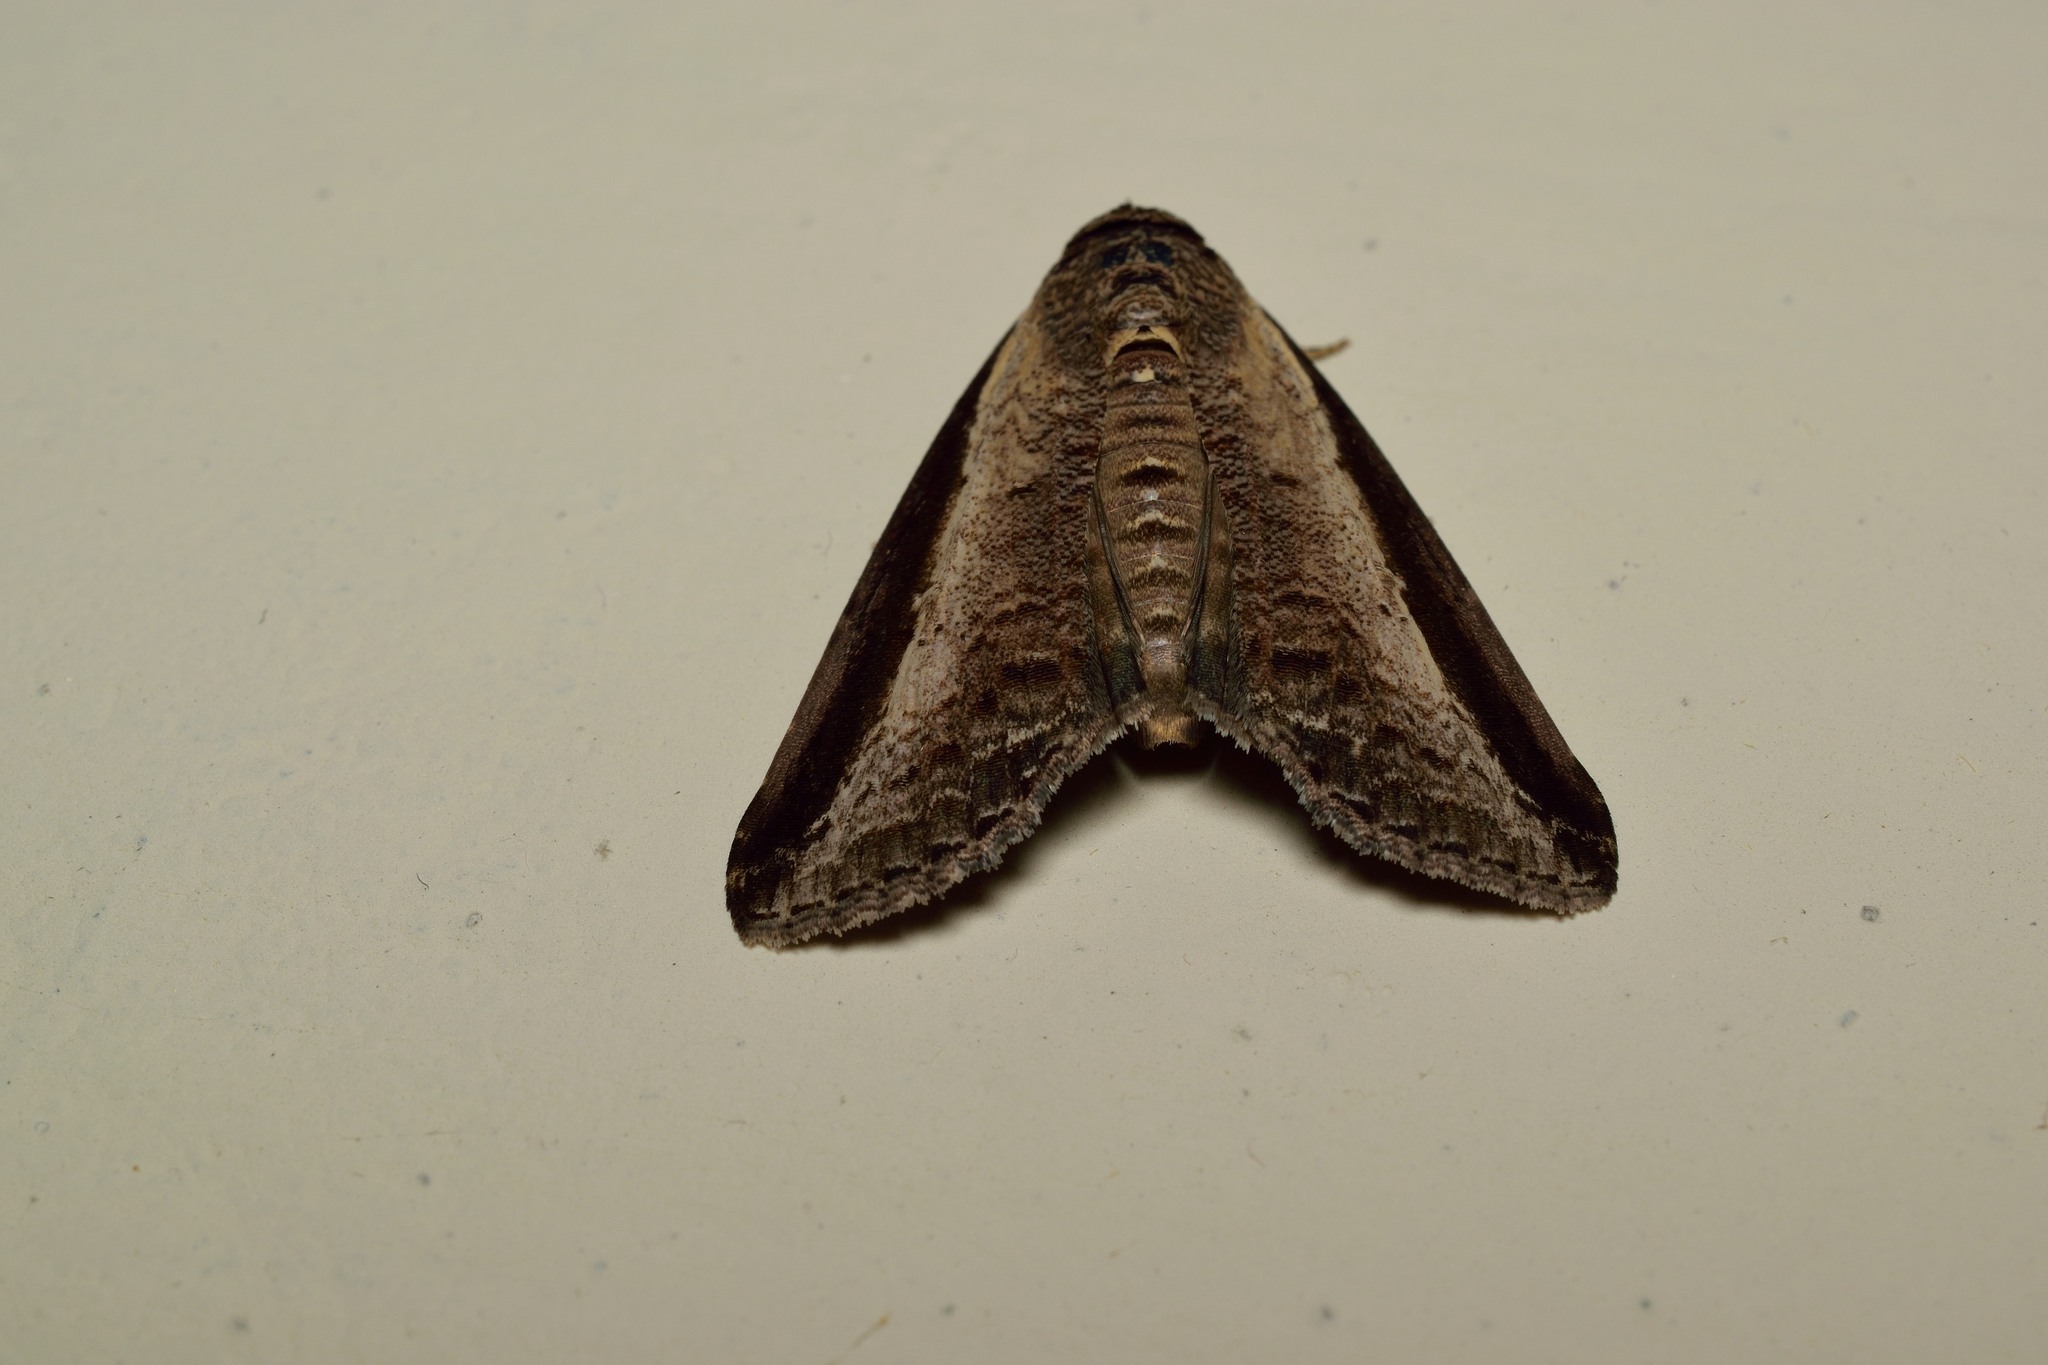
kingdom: Animalia
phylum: Arthropoda
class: Insecta
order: Lepidoptera
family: Euteliidae
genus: Lophoptera
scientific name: Lophoptera squammigera
